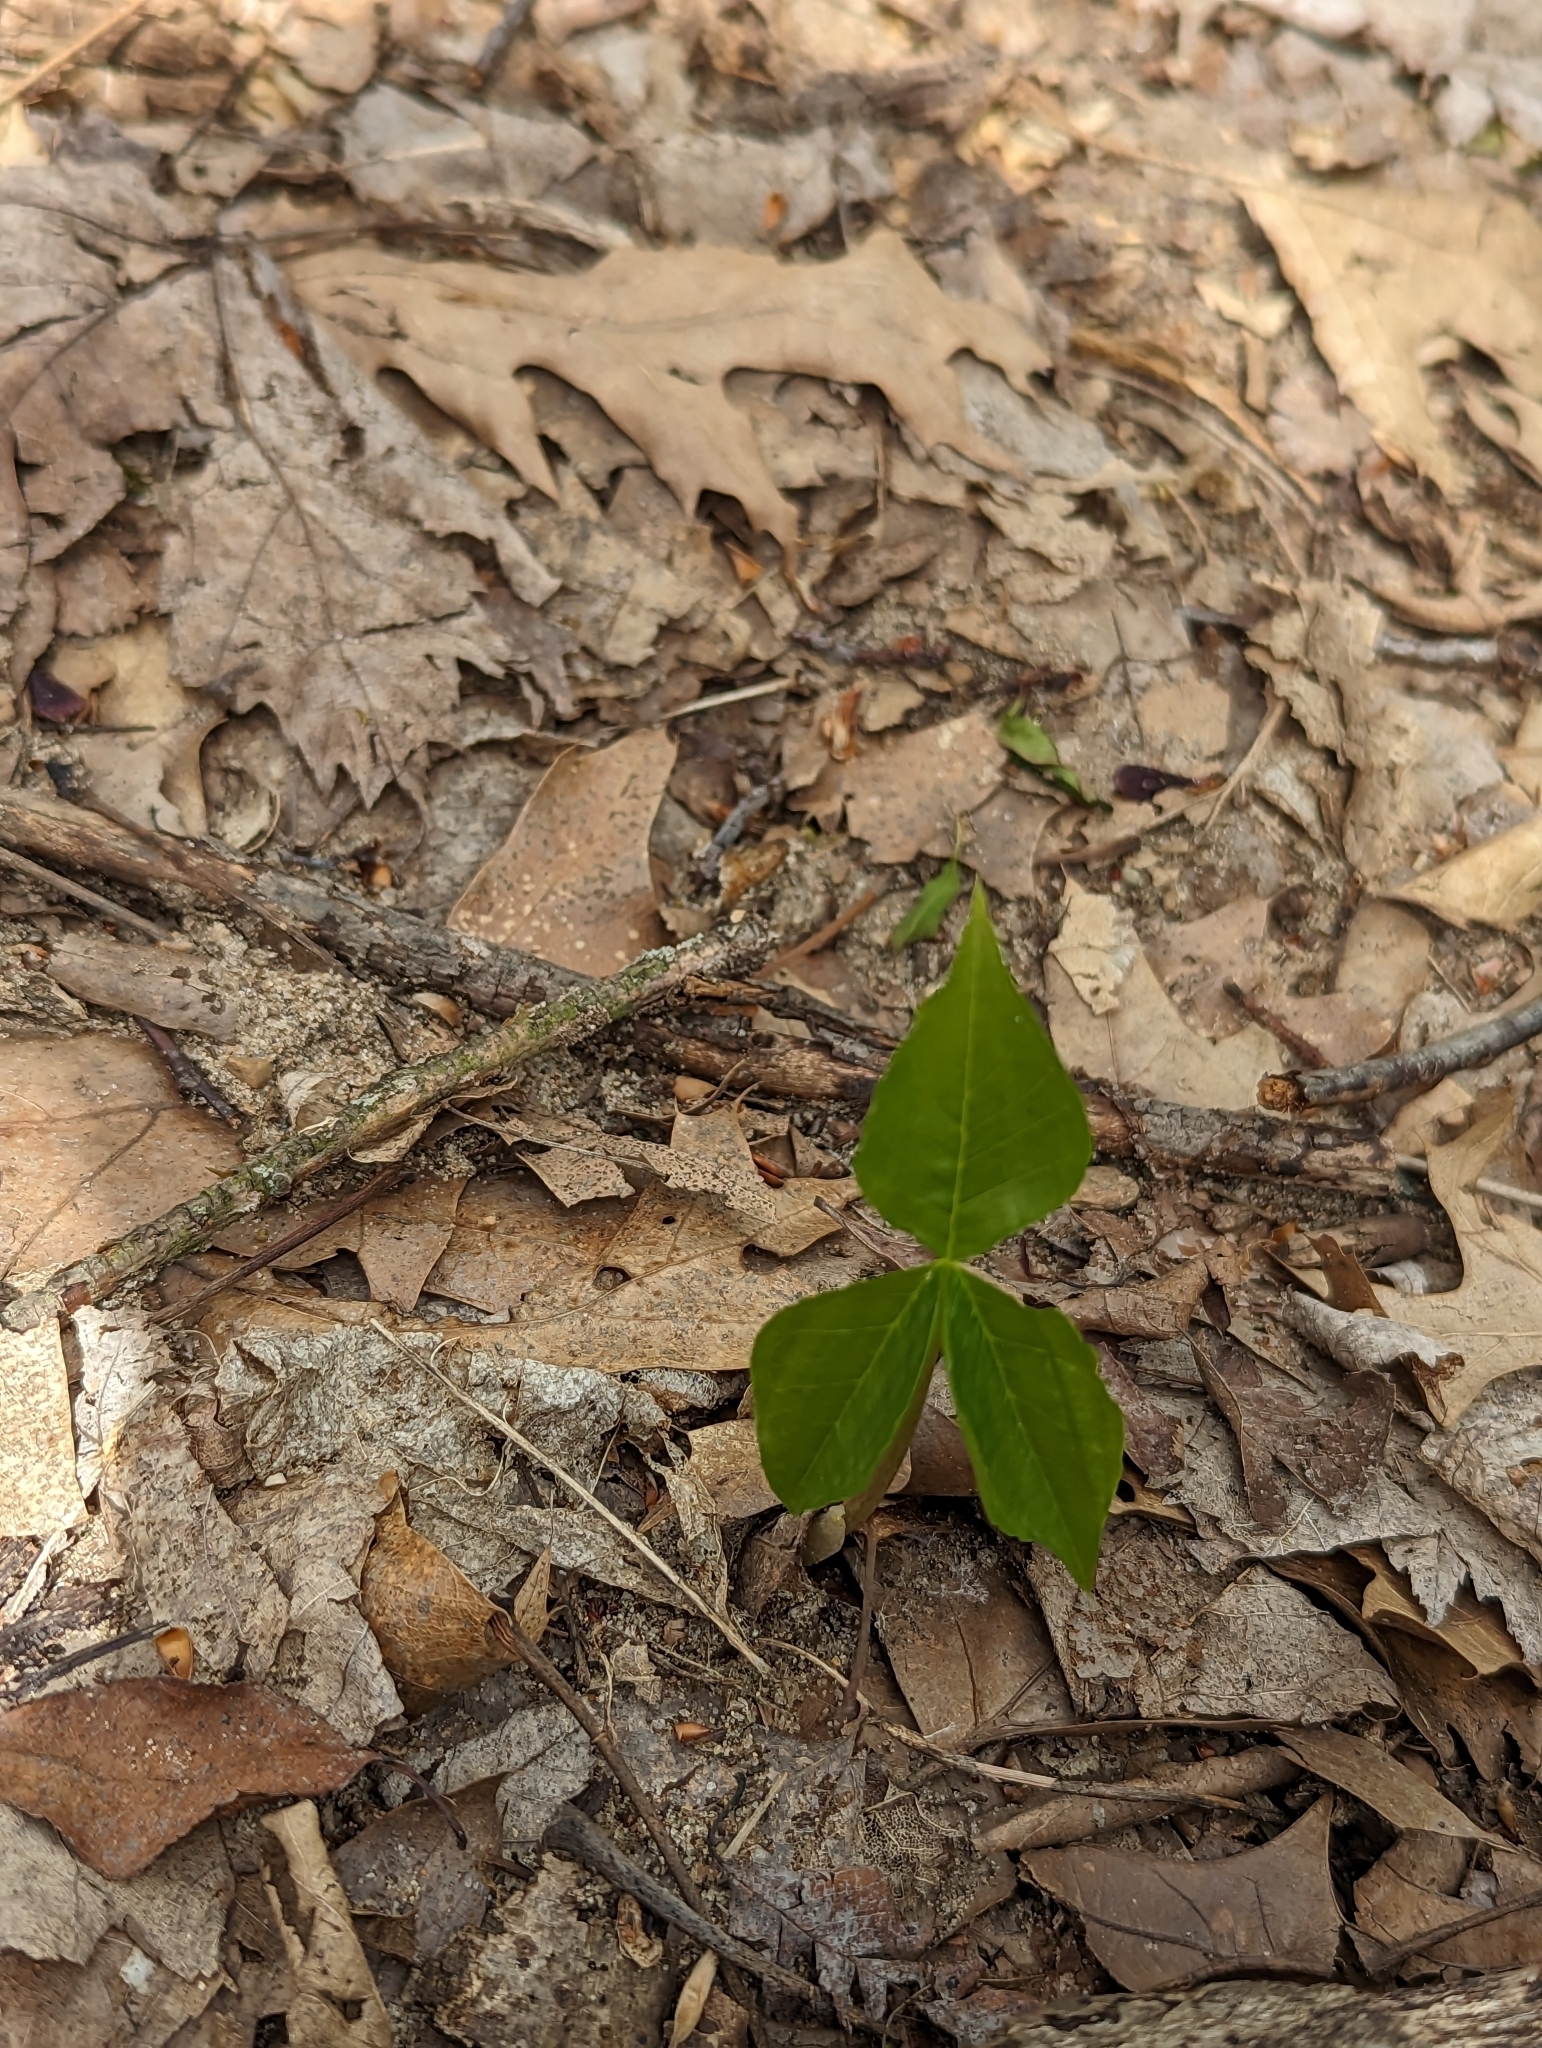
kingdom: Plantae
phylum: Tracheophyta
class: Liliopsida
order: Alismatales
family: Araceae
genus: Arisaema
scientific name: Arisaema triphyllum
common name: Jack-in-the-pulpit
